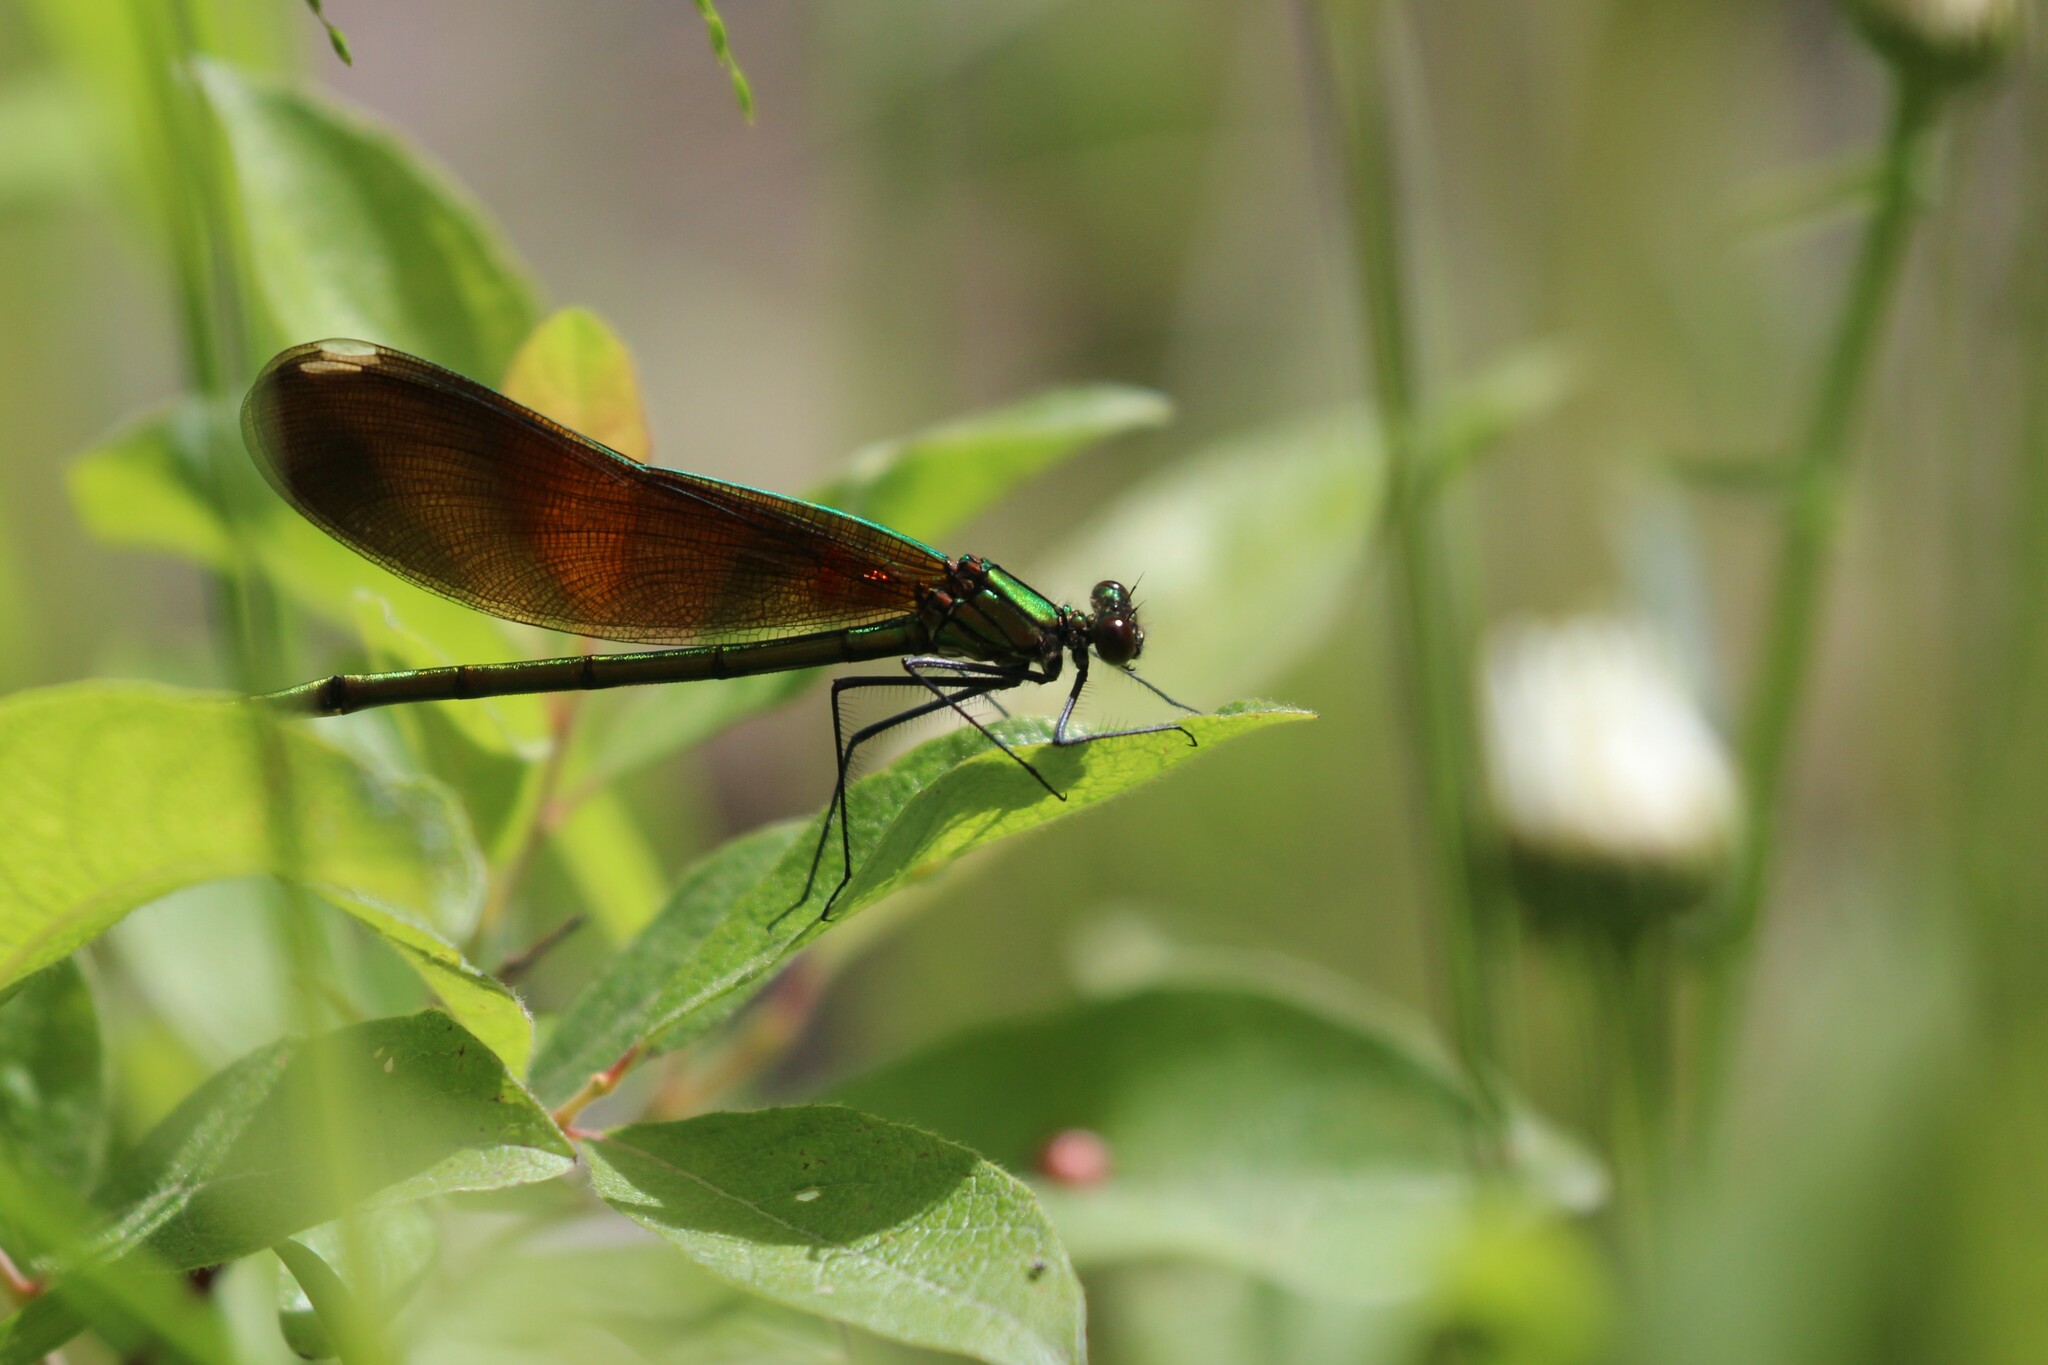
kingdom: Animalia
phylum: Arthropoda
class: Insecta
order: Odonata
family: Calopterygidae
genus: Calopteryx
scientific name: Calopteryx aequabilis
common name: River jewelwing
